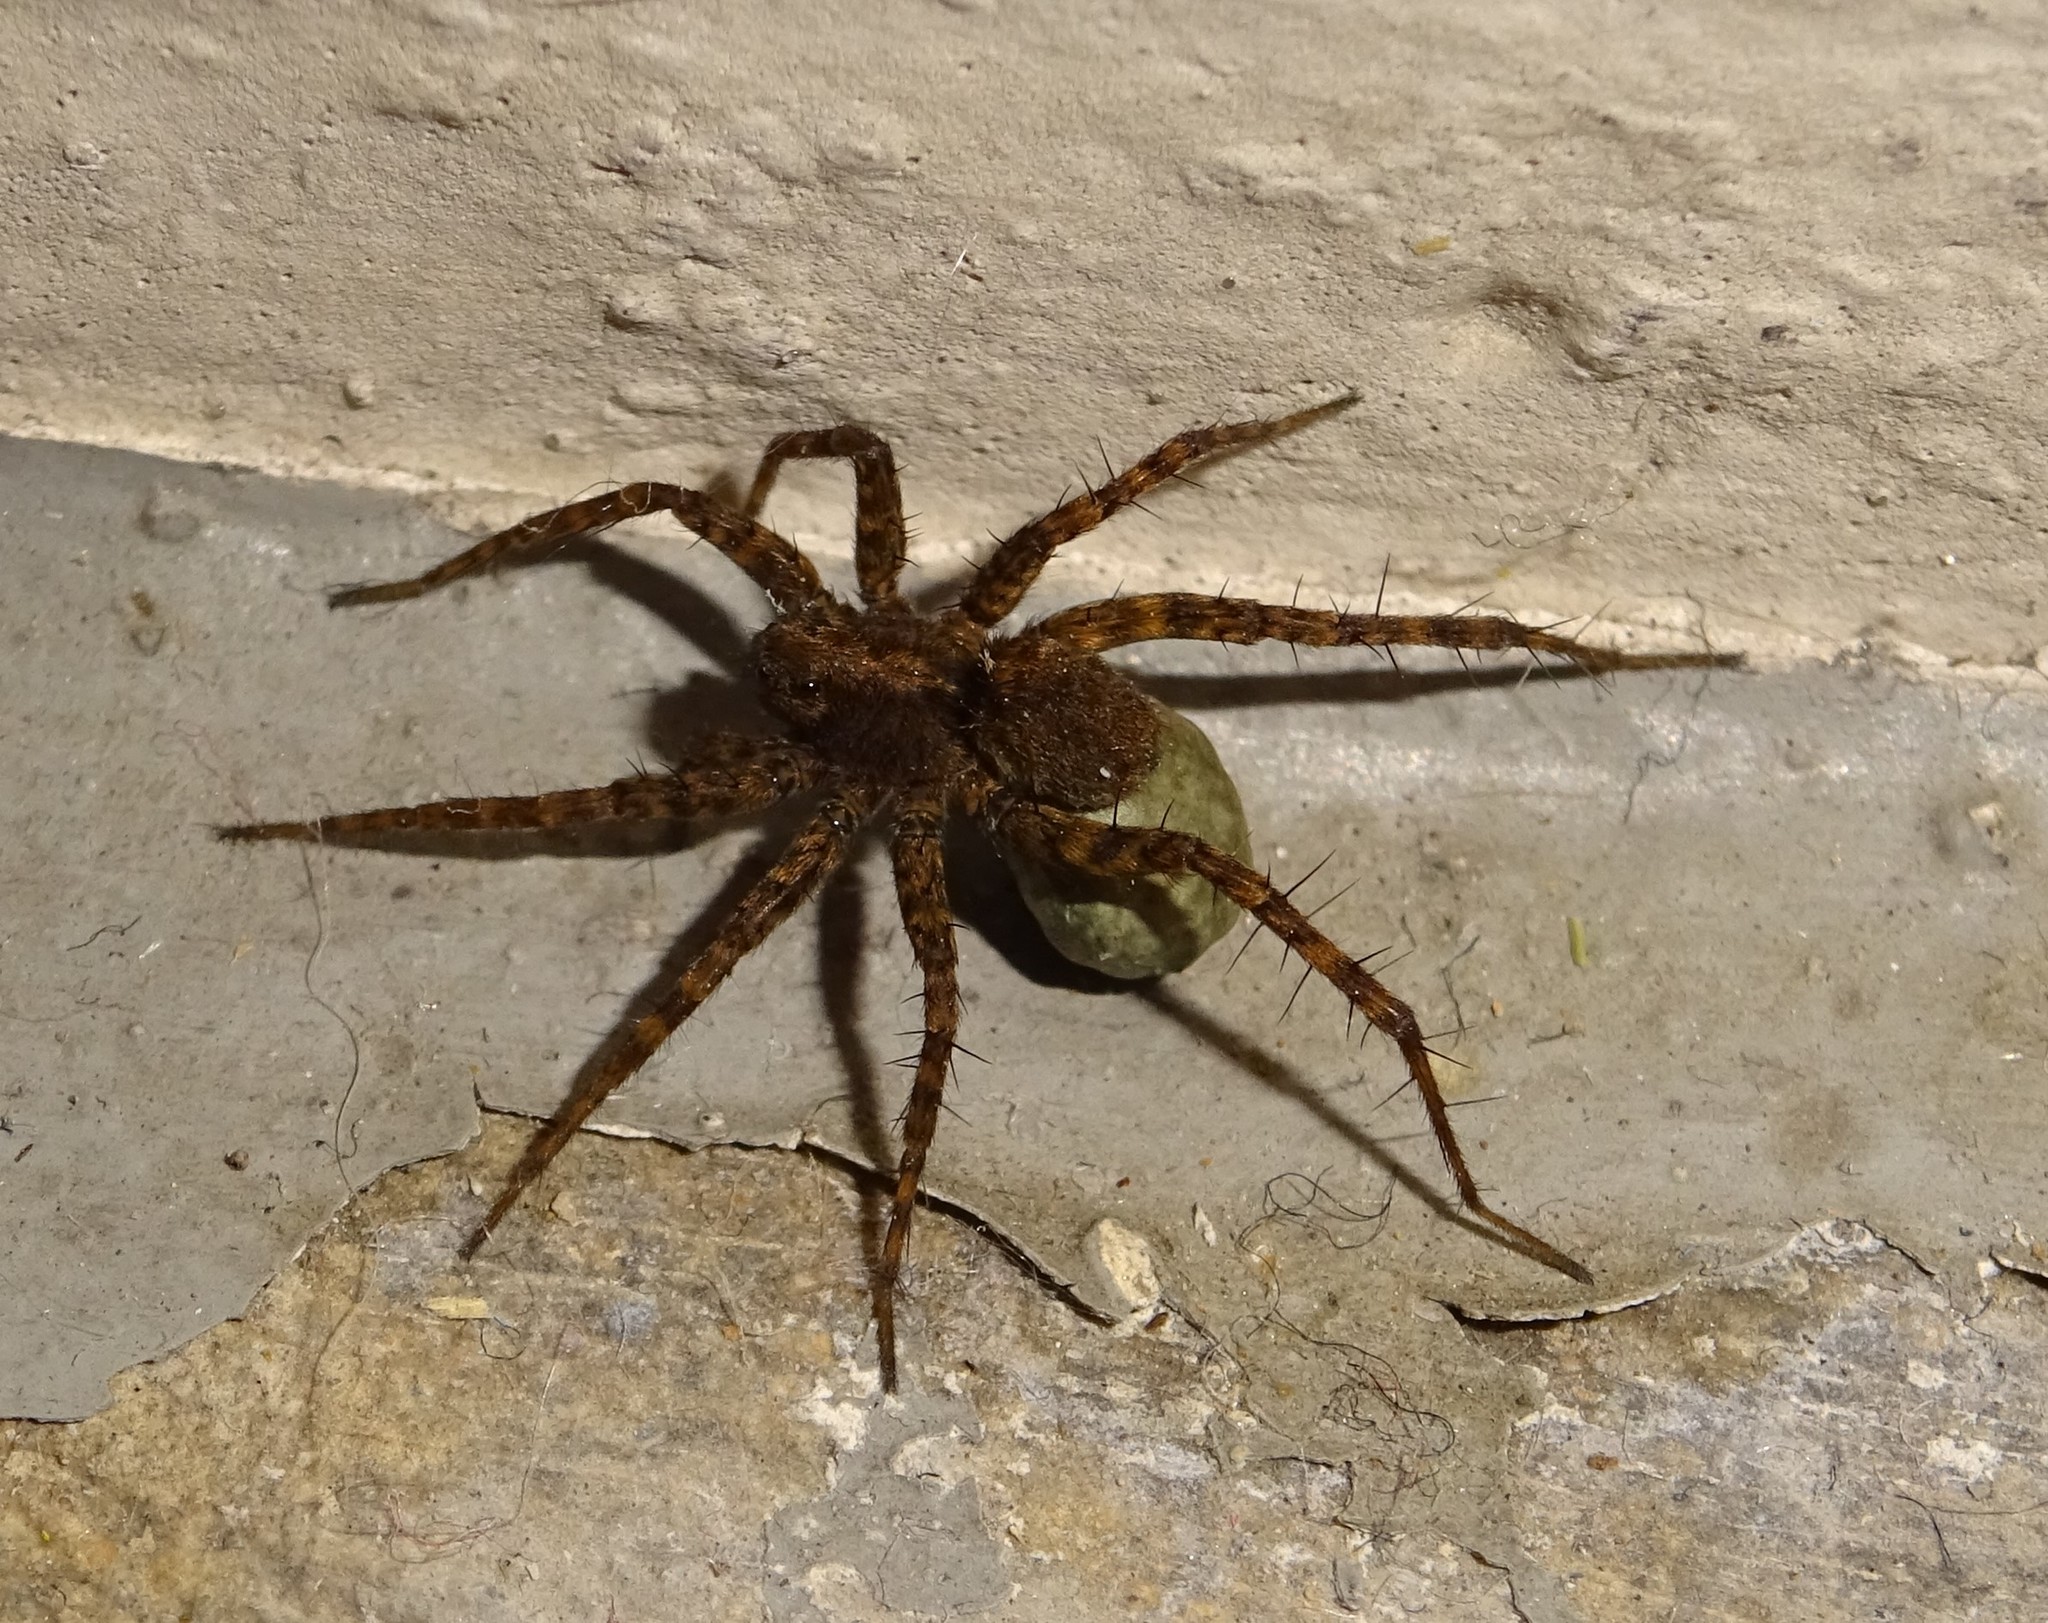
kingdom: Animalia
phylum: Arthropoda
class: Arachnida
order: Araneae
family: Lycosidae
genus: Pardosa
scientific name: Pardosa
